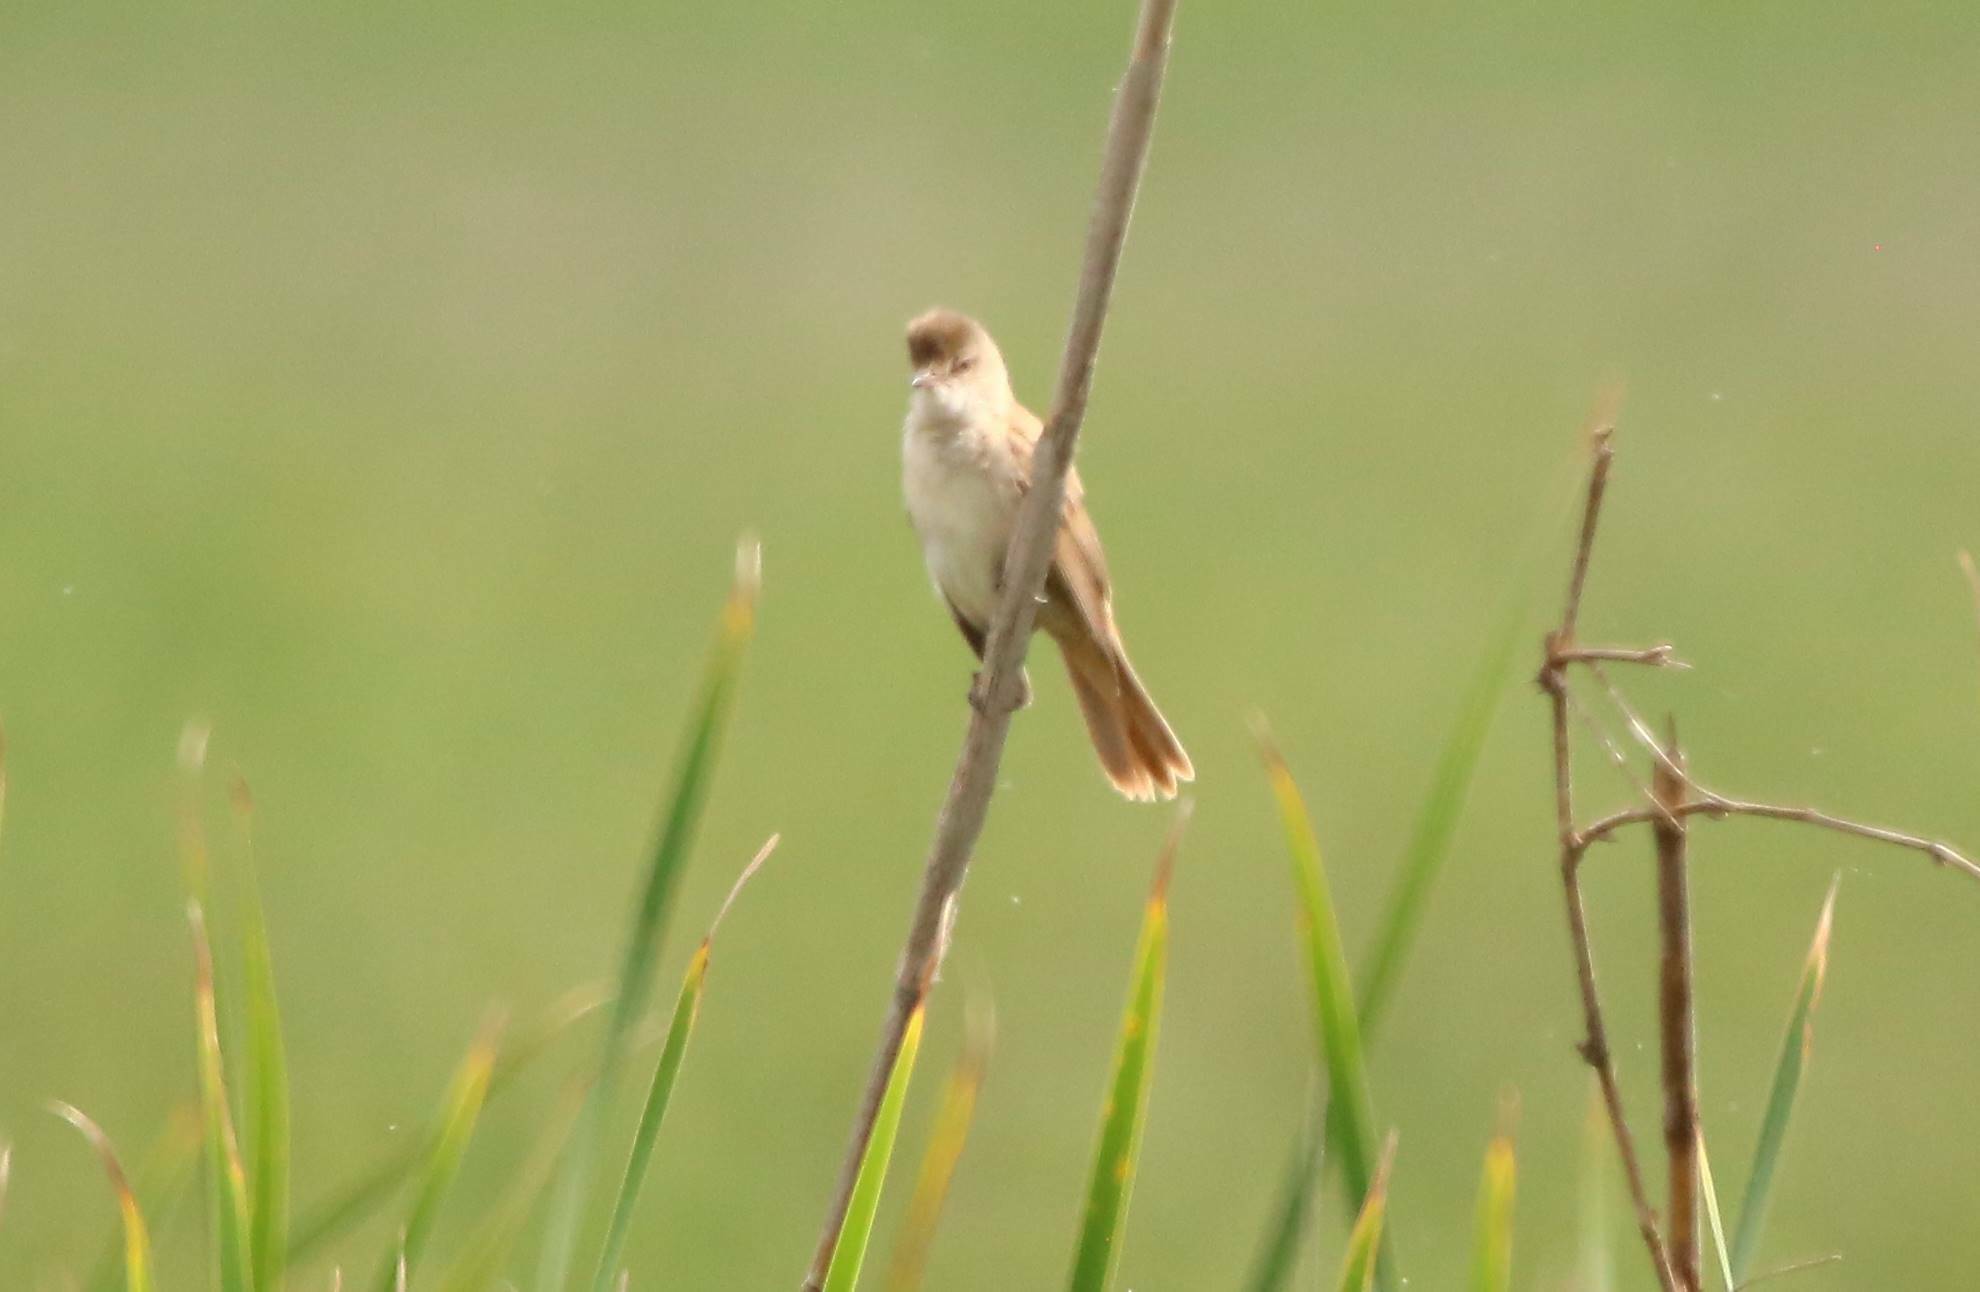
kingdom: Animalia
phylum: Chordata
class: Aves
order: Passeriformes
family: Acrocephalidae
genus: Acrocephalus
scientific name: Acrocephalus arundinaceus
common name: Great reed warbler
